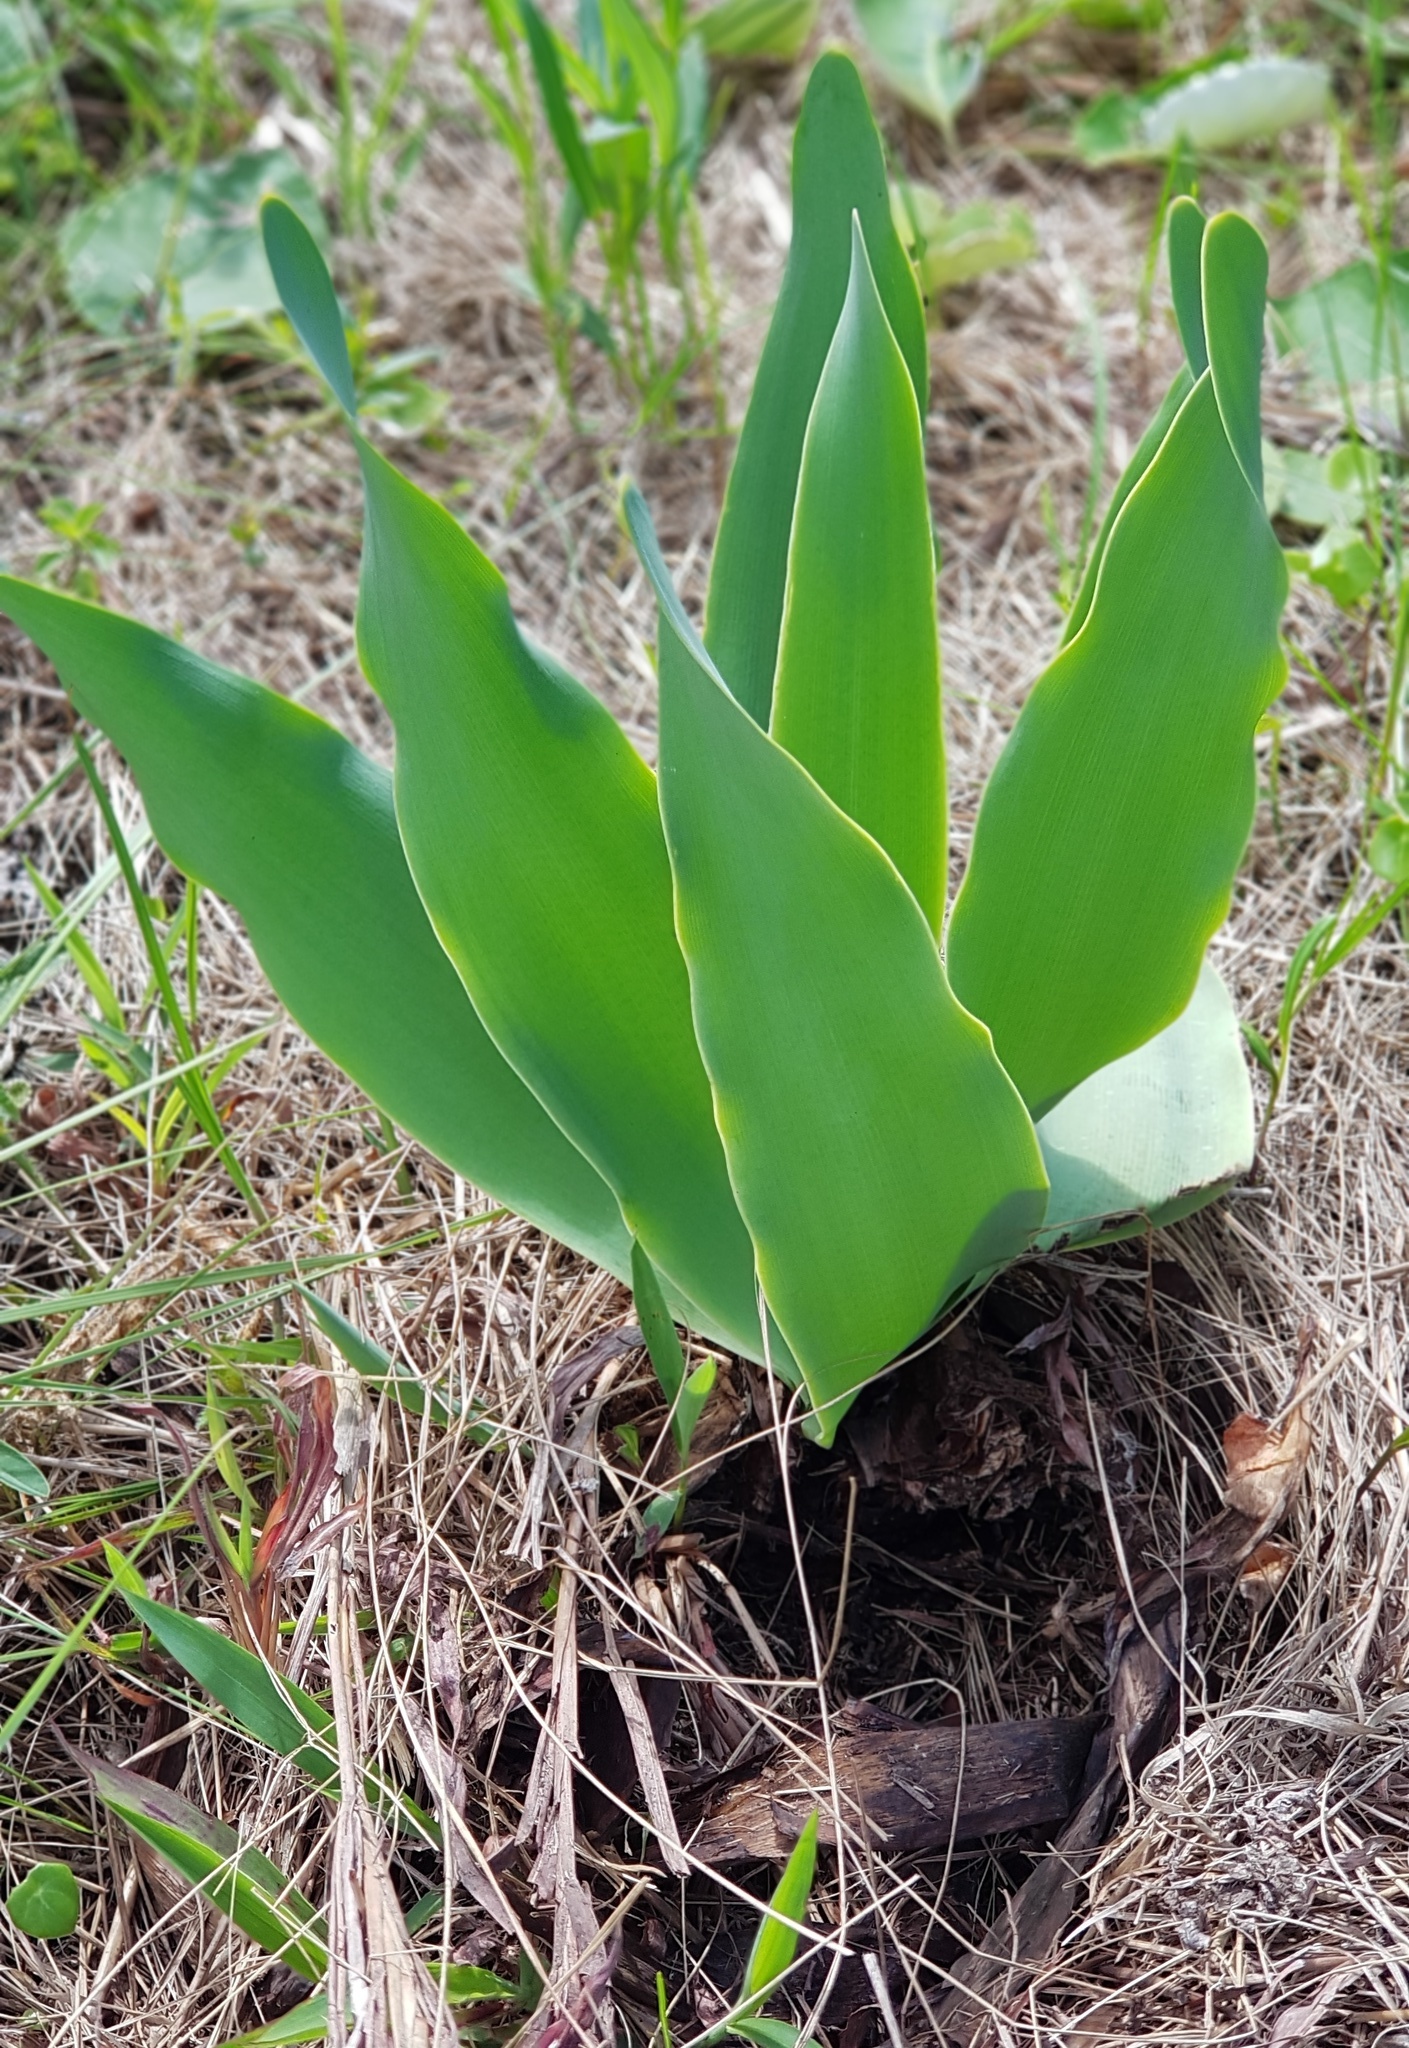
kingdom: Plantae
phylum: Tracheophyta
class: Liliopsida
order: Asparagales
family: Amaryllidaceae
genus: Brunsvigia
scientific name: Brunsvigia grandiflora
